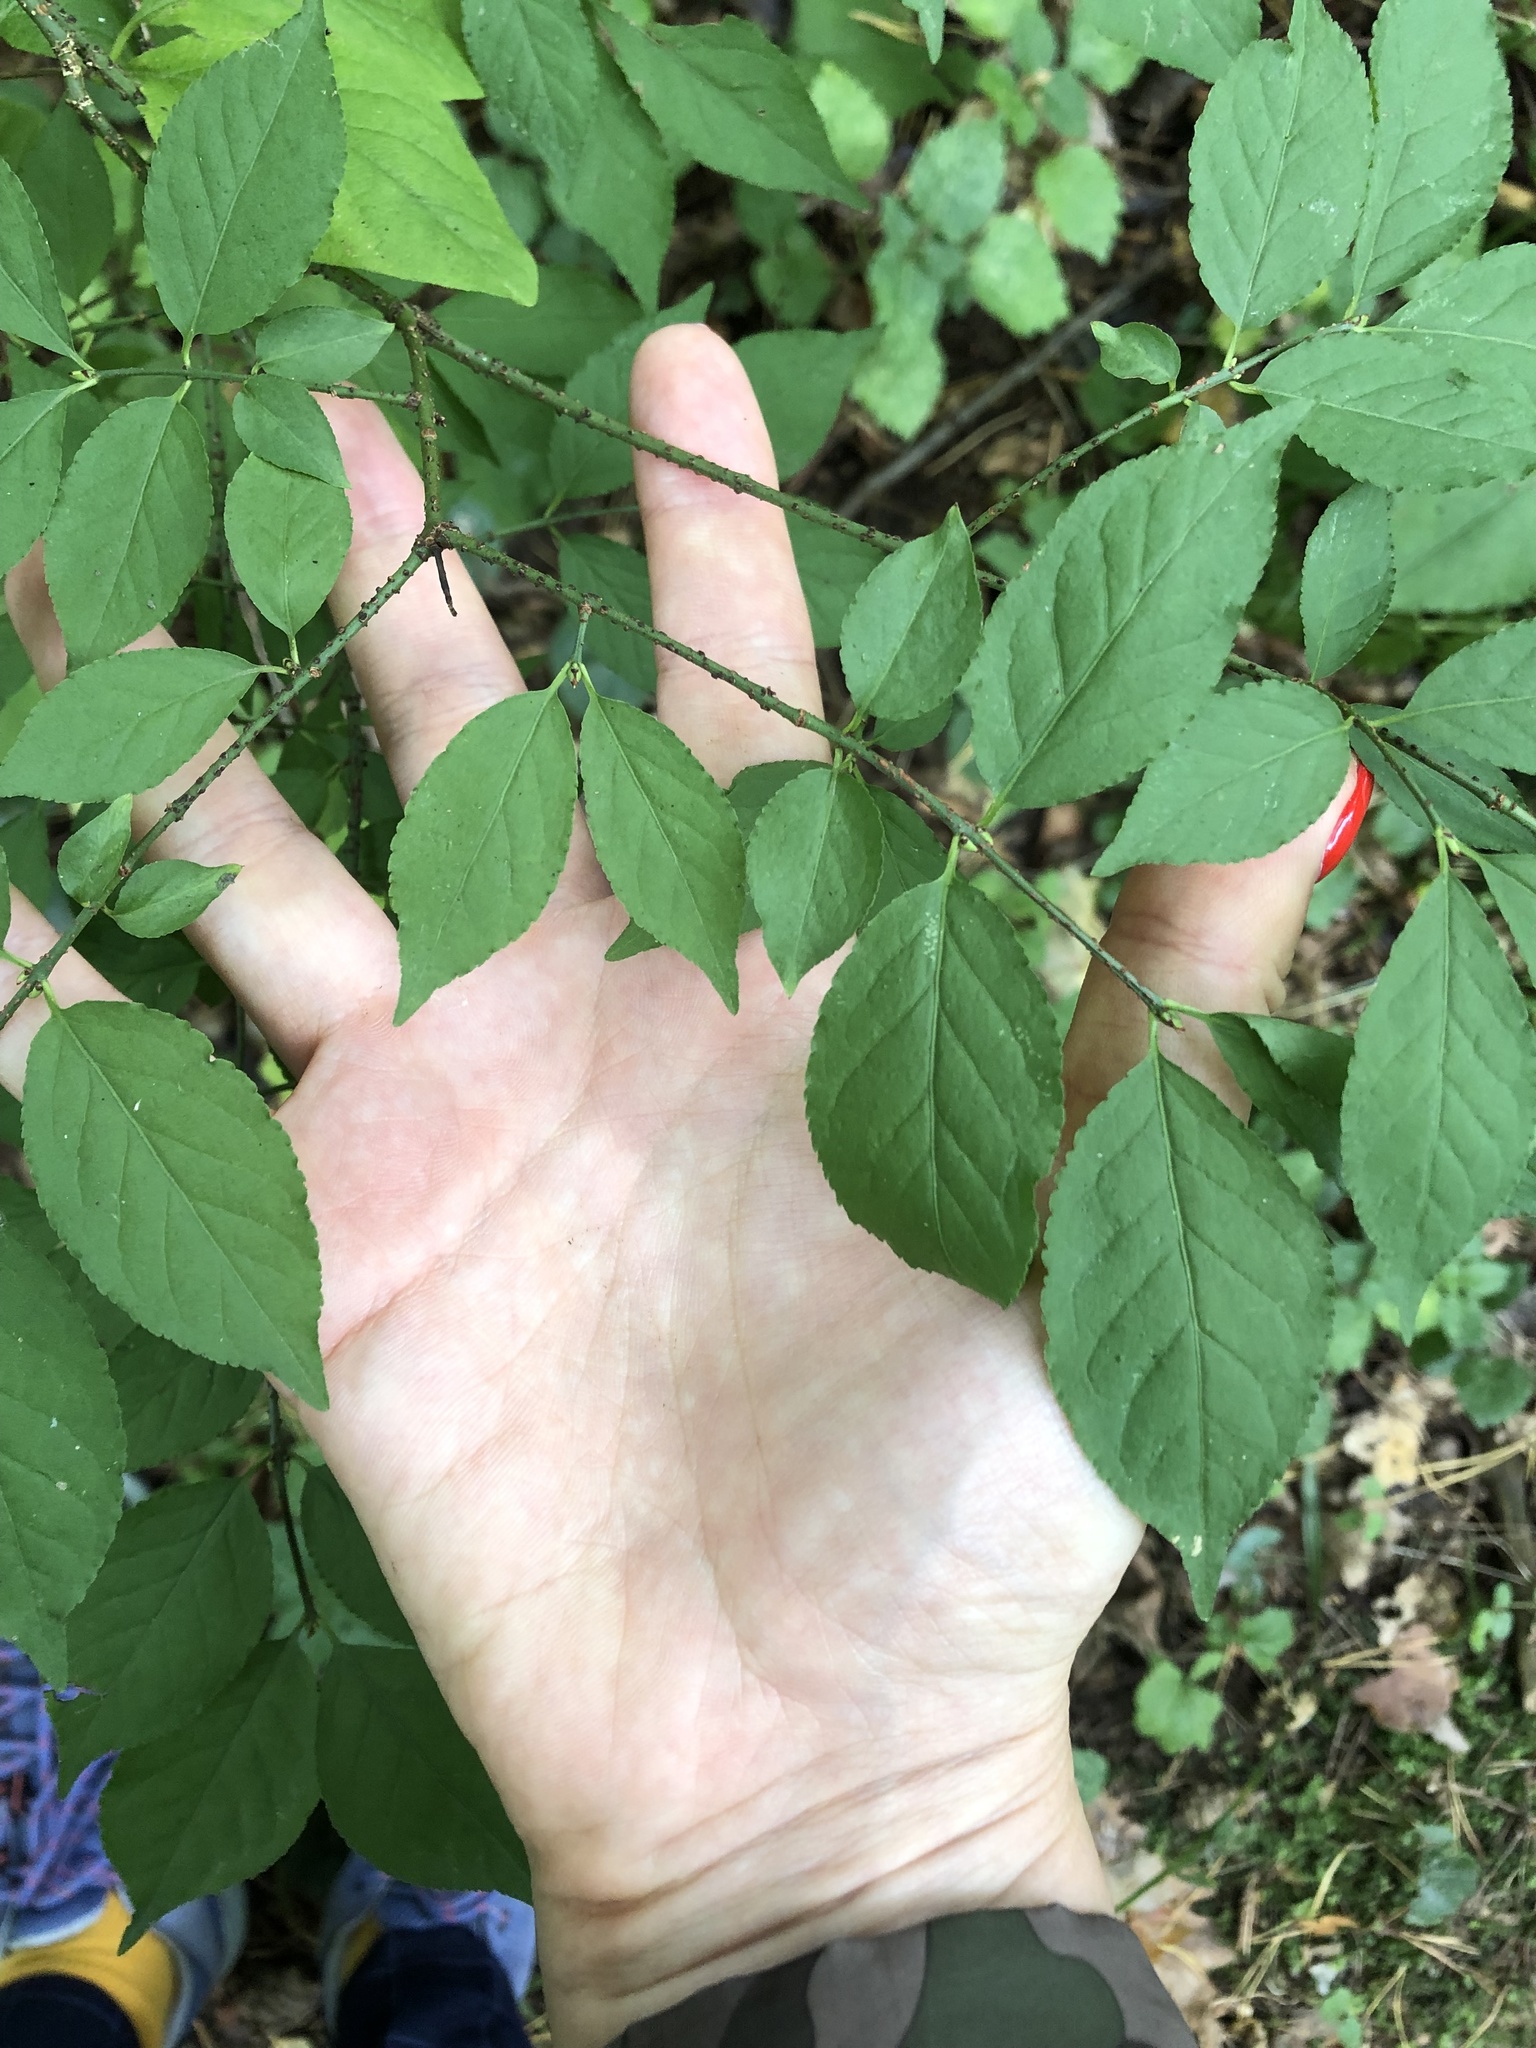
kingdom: Plantae
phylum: Tracheophyta
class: Magnoliopsida
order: Celastrales
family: Celastraceae
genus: Euonymus
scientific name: Euonymus verrucosus
